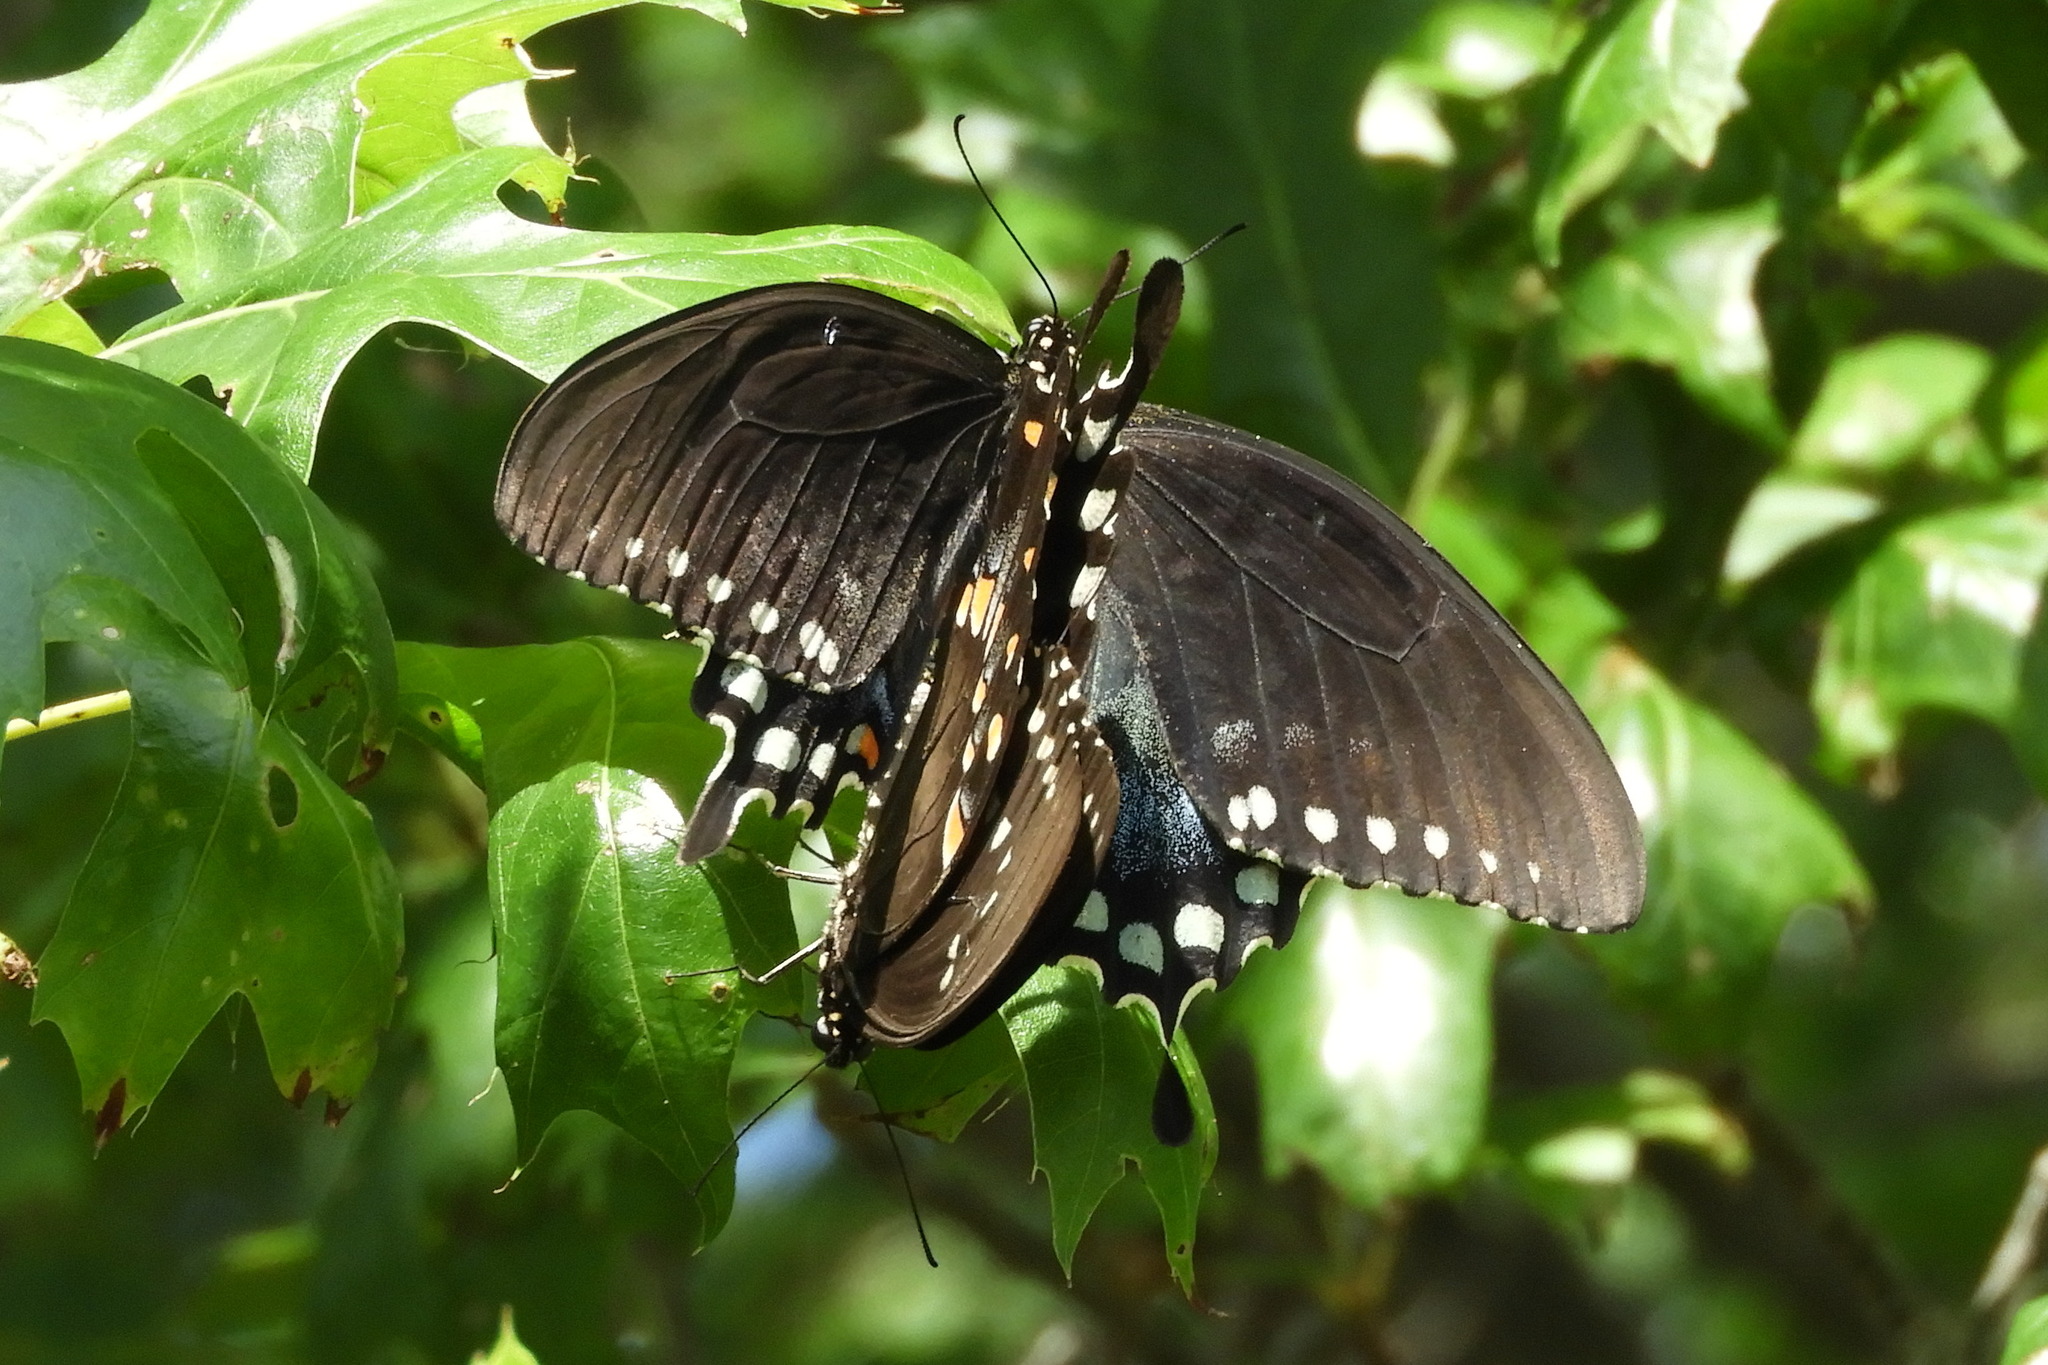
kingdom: Animalia
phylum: Arthropoda
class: Insecta
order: Lepidoptera
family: Papilionidae
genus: Papilio
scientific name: Papilio troilus
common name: Spicebush swallowtail
